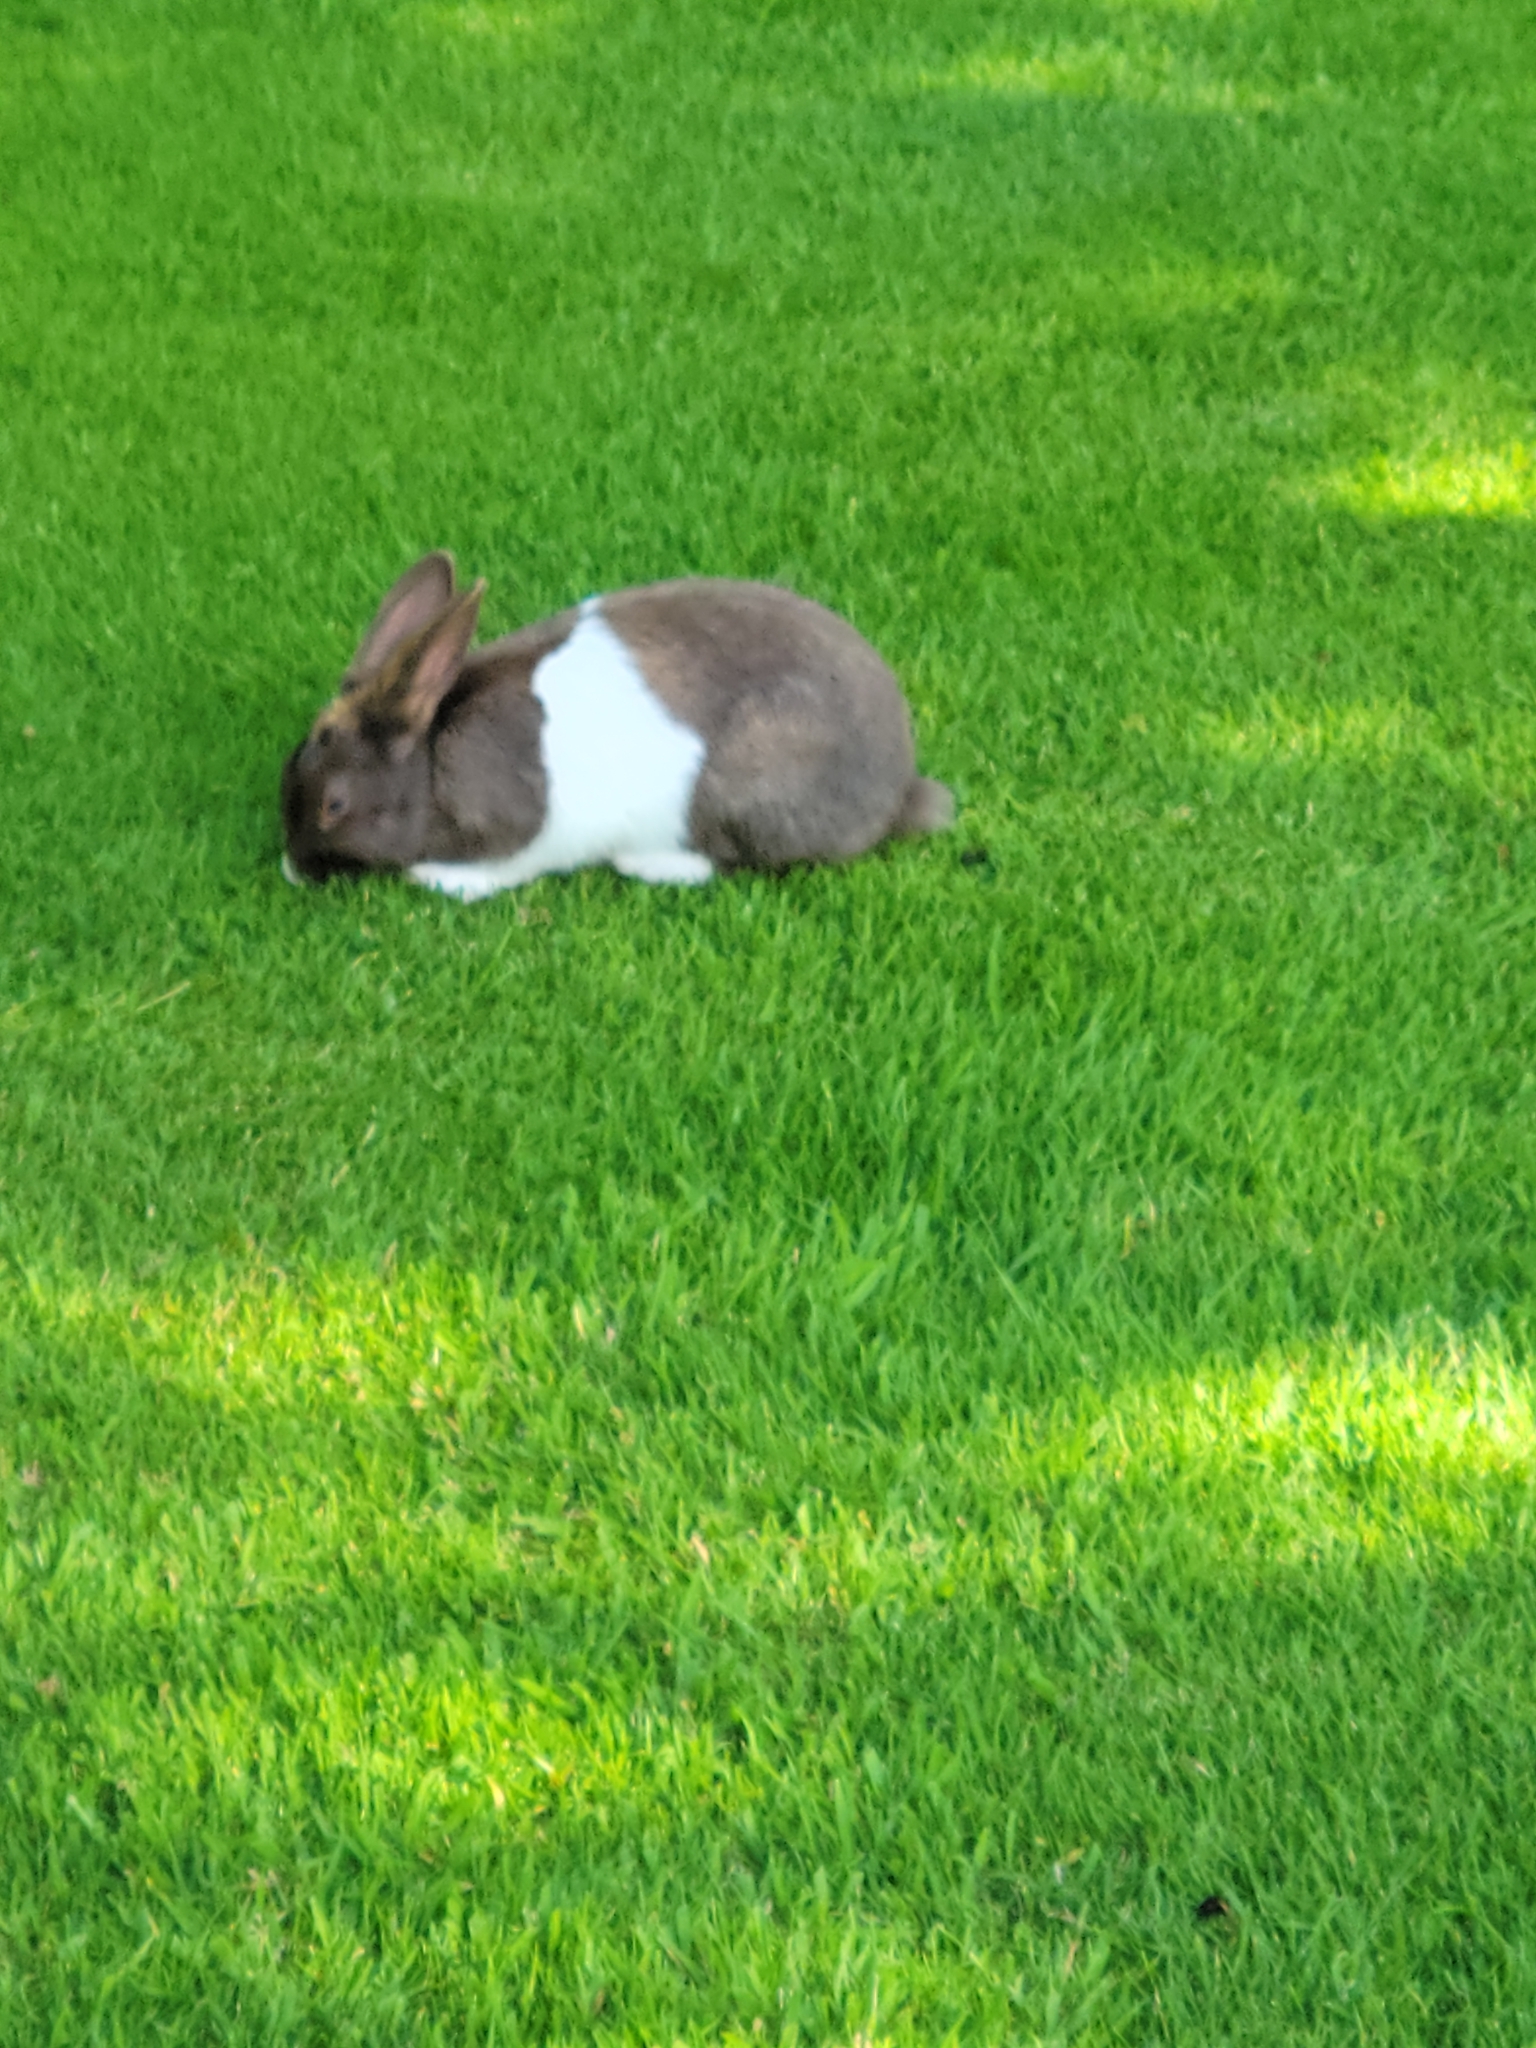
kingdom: Animalia
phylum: Chordata
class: Mammalia
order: Lagomorpha
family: Leporidae
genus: Oryctolagus
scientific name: Oryctolagus cuniculus
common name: European rabbit
